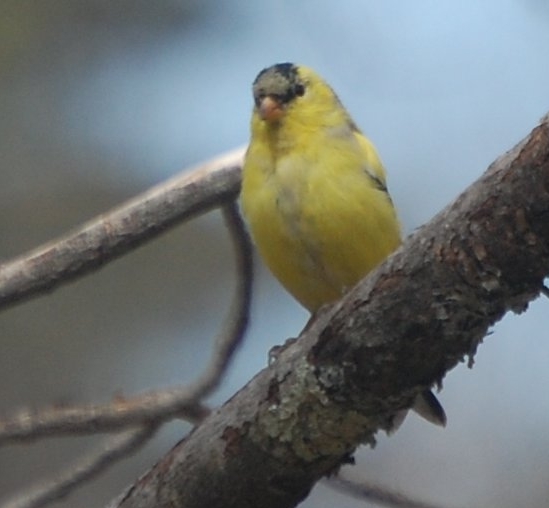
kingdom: Animalia
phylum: Chordata
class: Aves
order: Passeriformes
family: Fringillidae
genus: Spinus
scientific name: Spinus tristis
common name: American goldfinch
